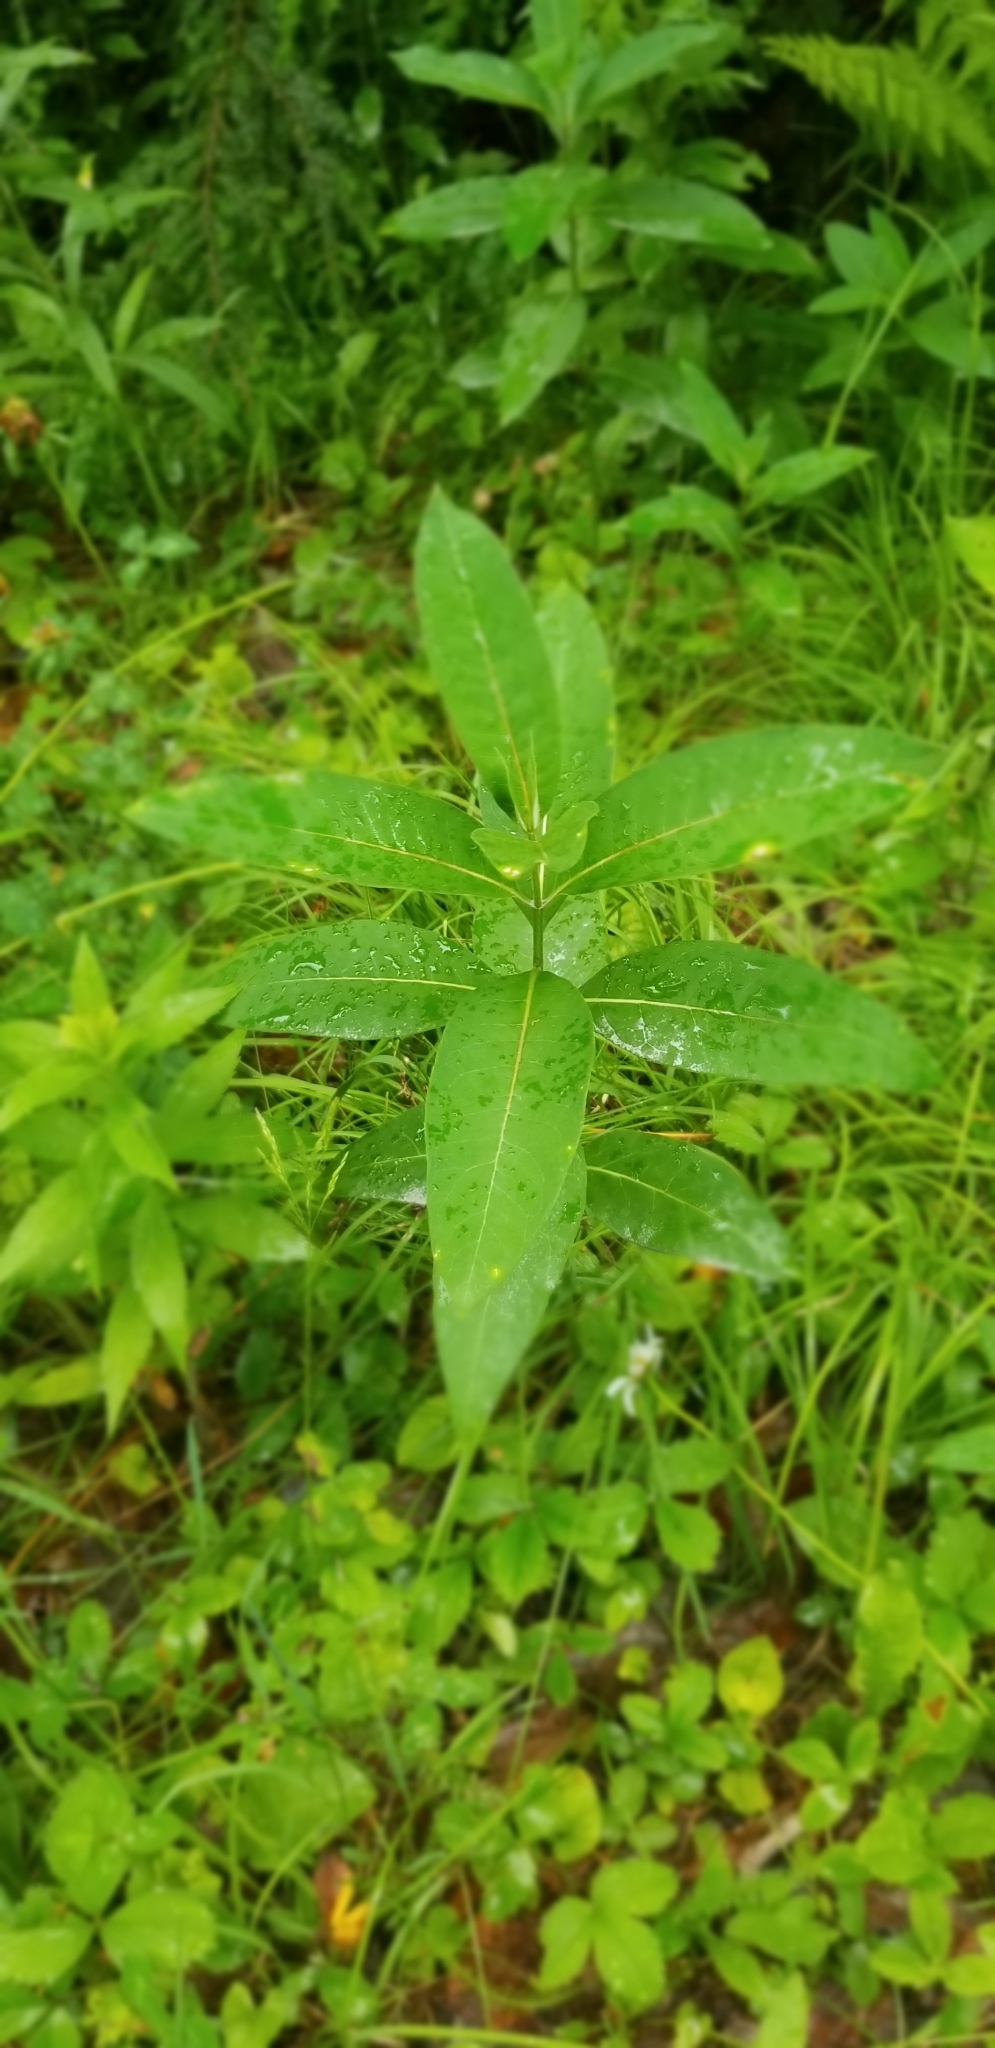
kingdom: Plantae
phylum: Tracheophyta
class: Magnoliopsida
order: Gentianales
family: Apocynaceae
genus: Asclepias
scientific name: Asclepias syriaca
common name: Common milkweed
